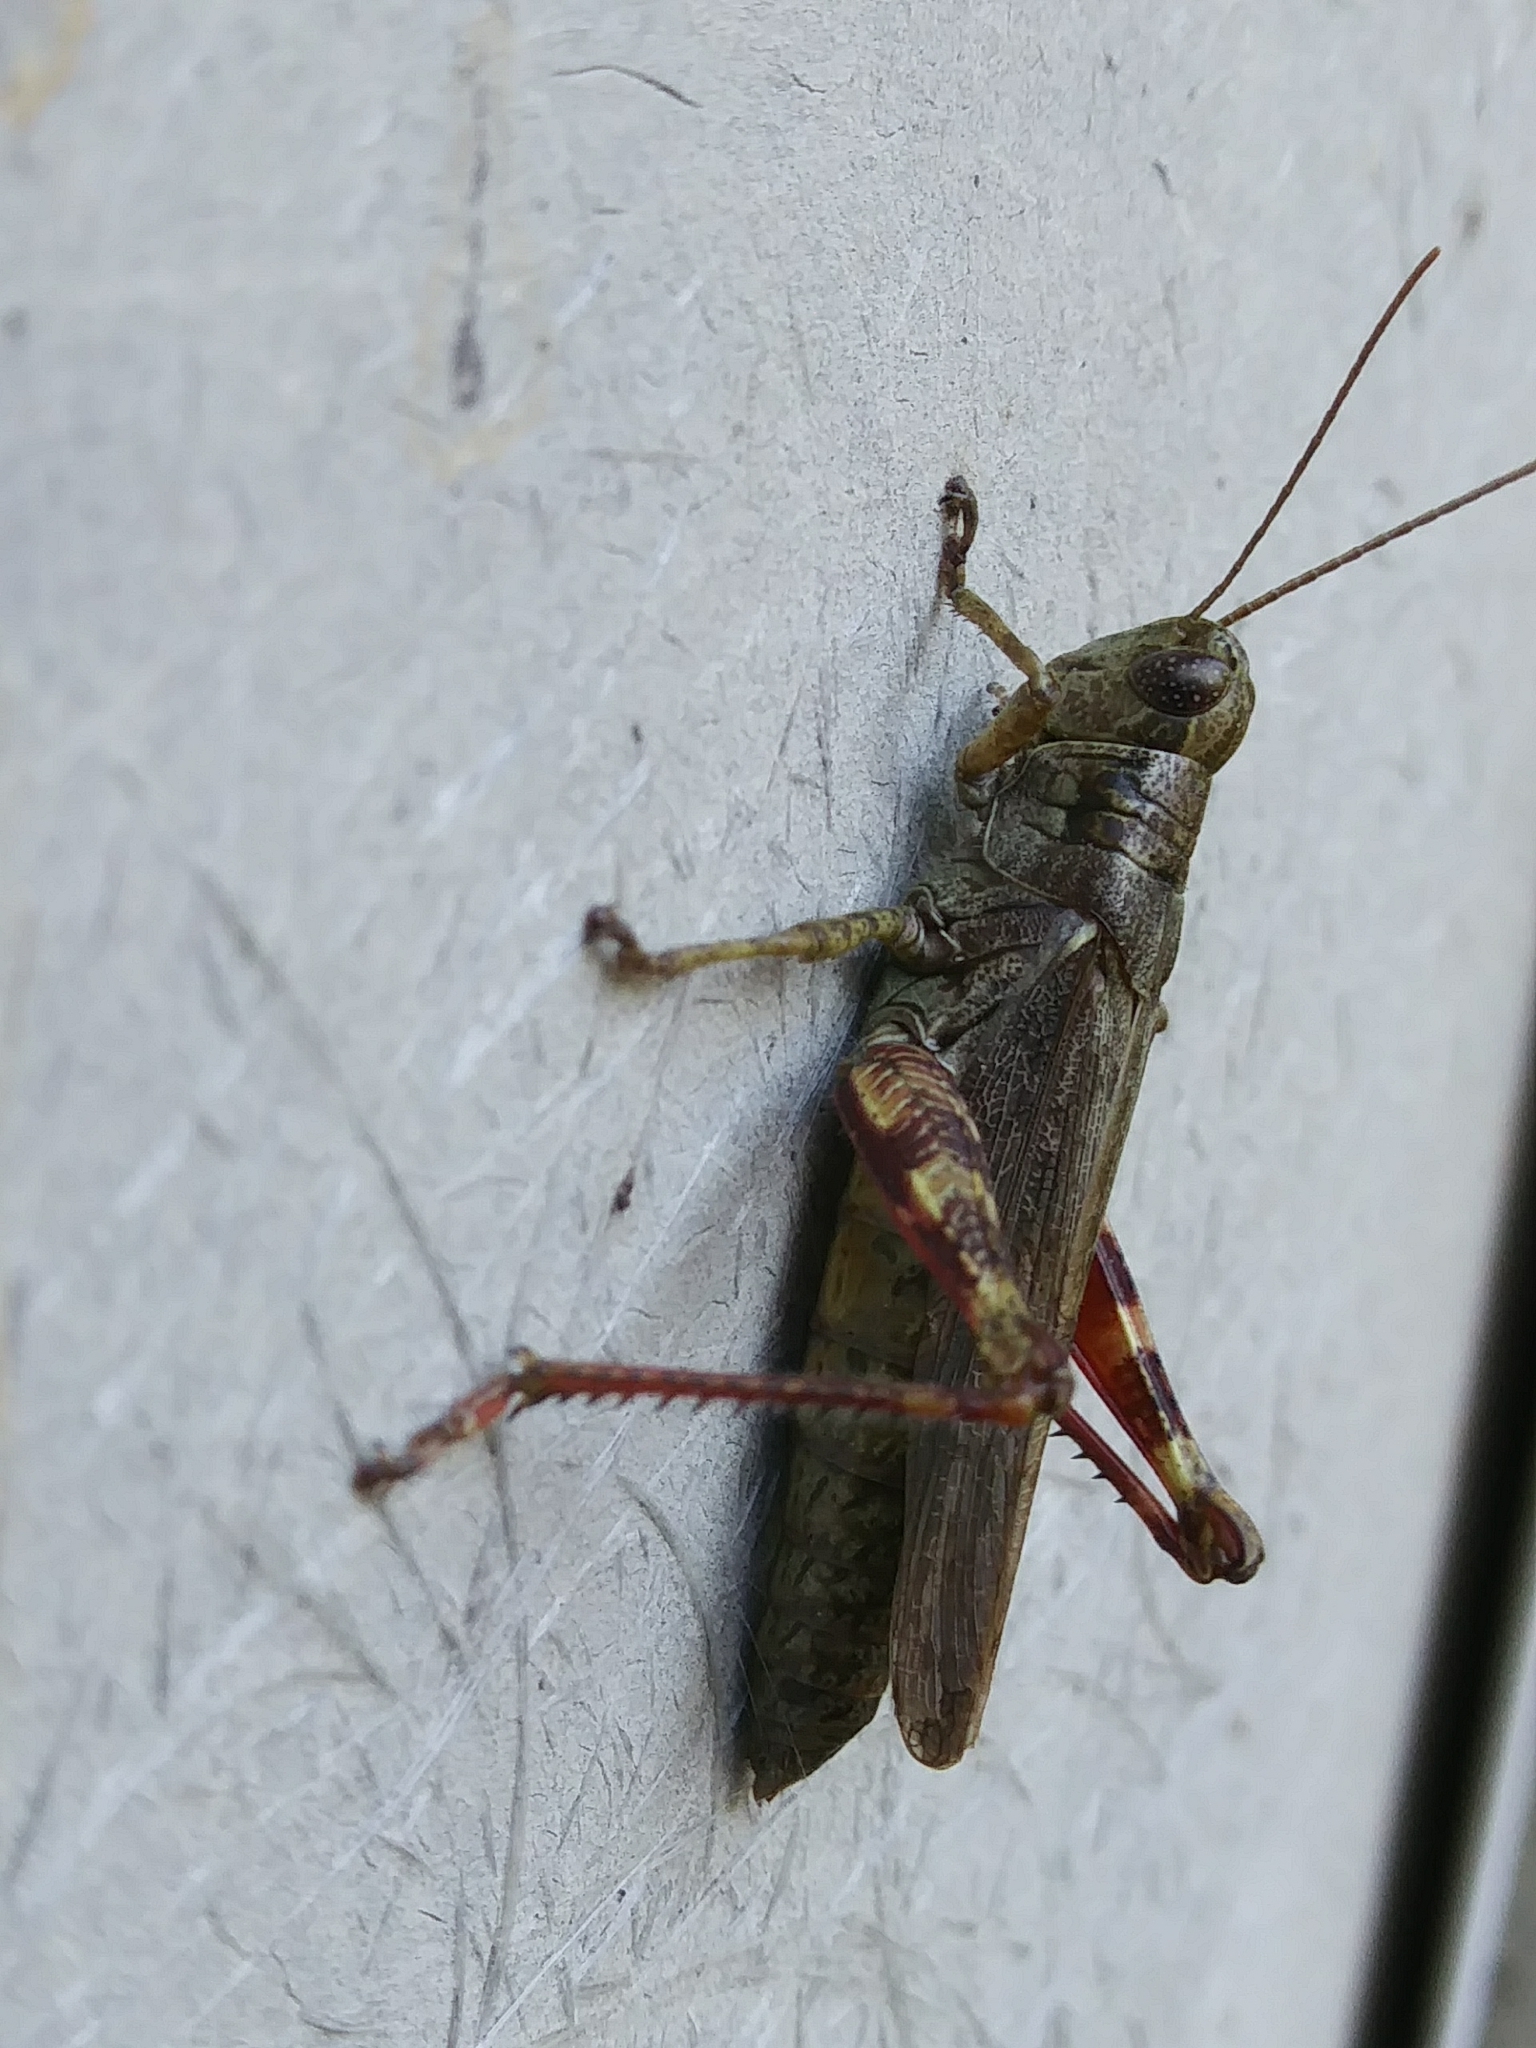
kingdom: Animalia
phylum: Arthropoda
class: Insecta
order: Orthoptera
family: Acrididae
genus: Melanoplus
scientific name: Melanoplus punctulatus
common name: Pine-tree spur-throat grasshopper
